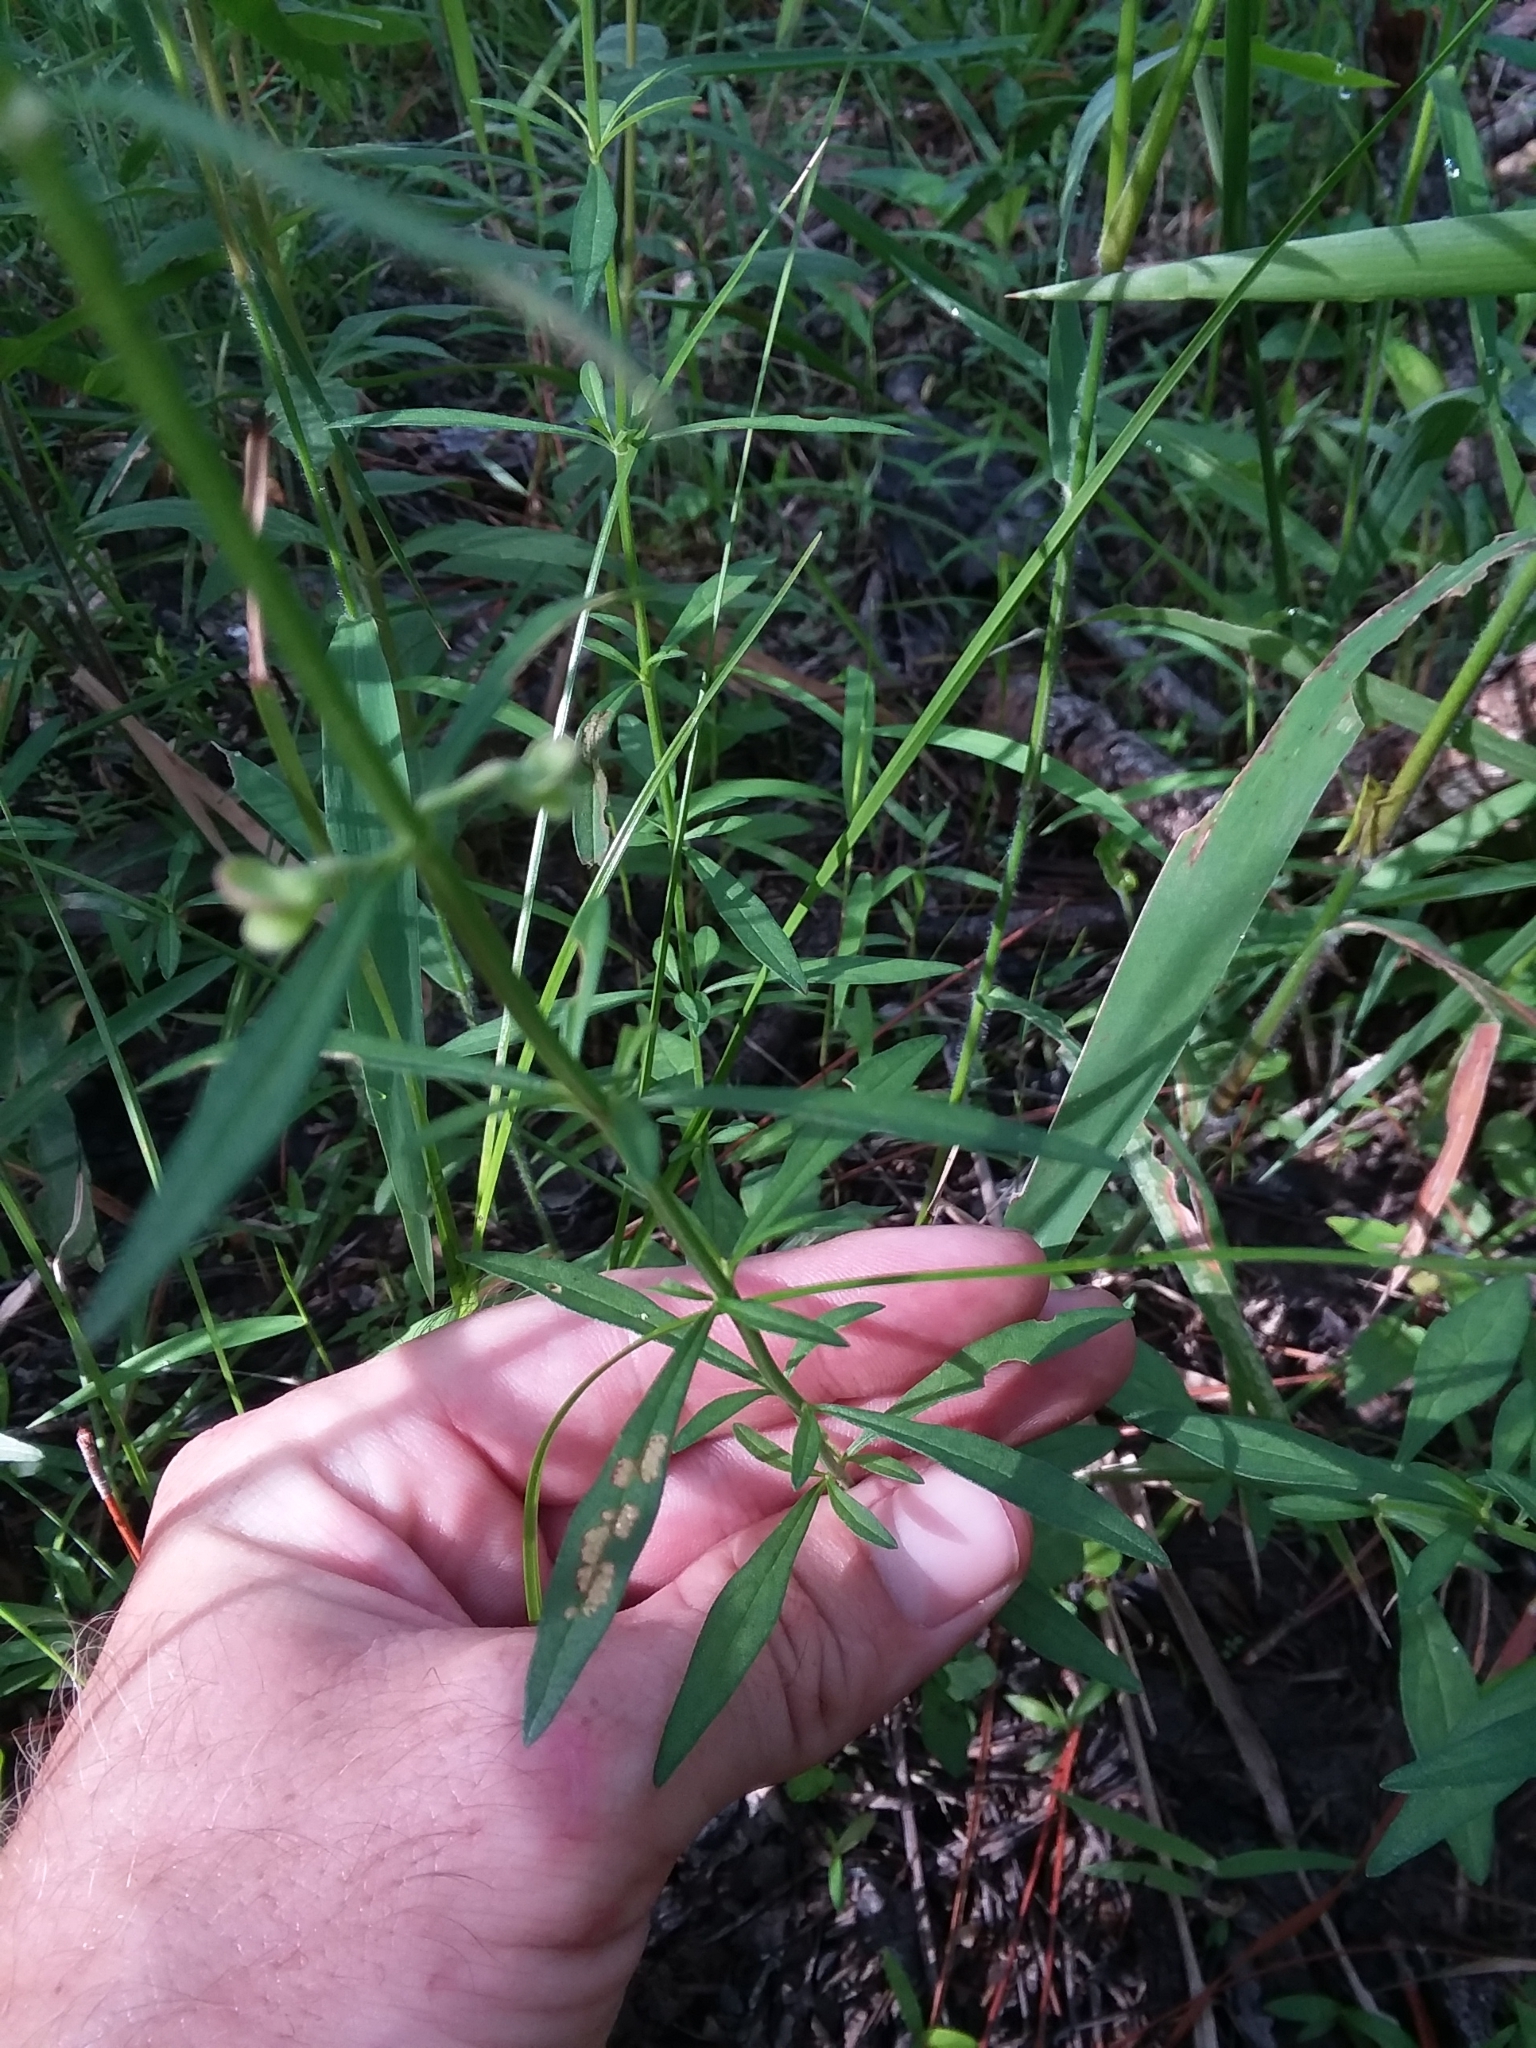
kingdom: Plantae
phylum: Tracheophyta
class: Magnoliopsida
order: Lamiales
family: Lamiaceae
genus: Scutellaria
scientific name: Scutellaria integrifolia
